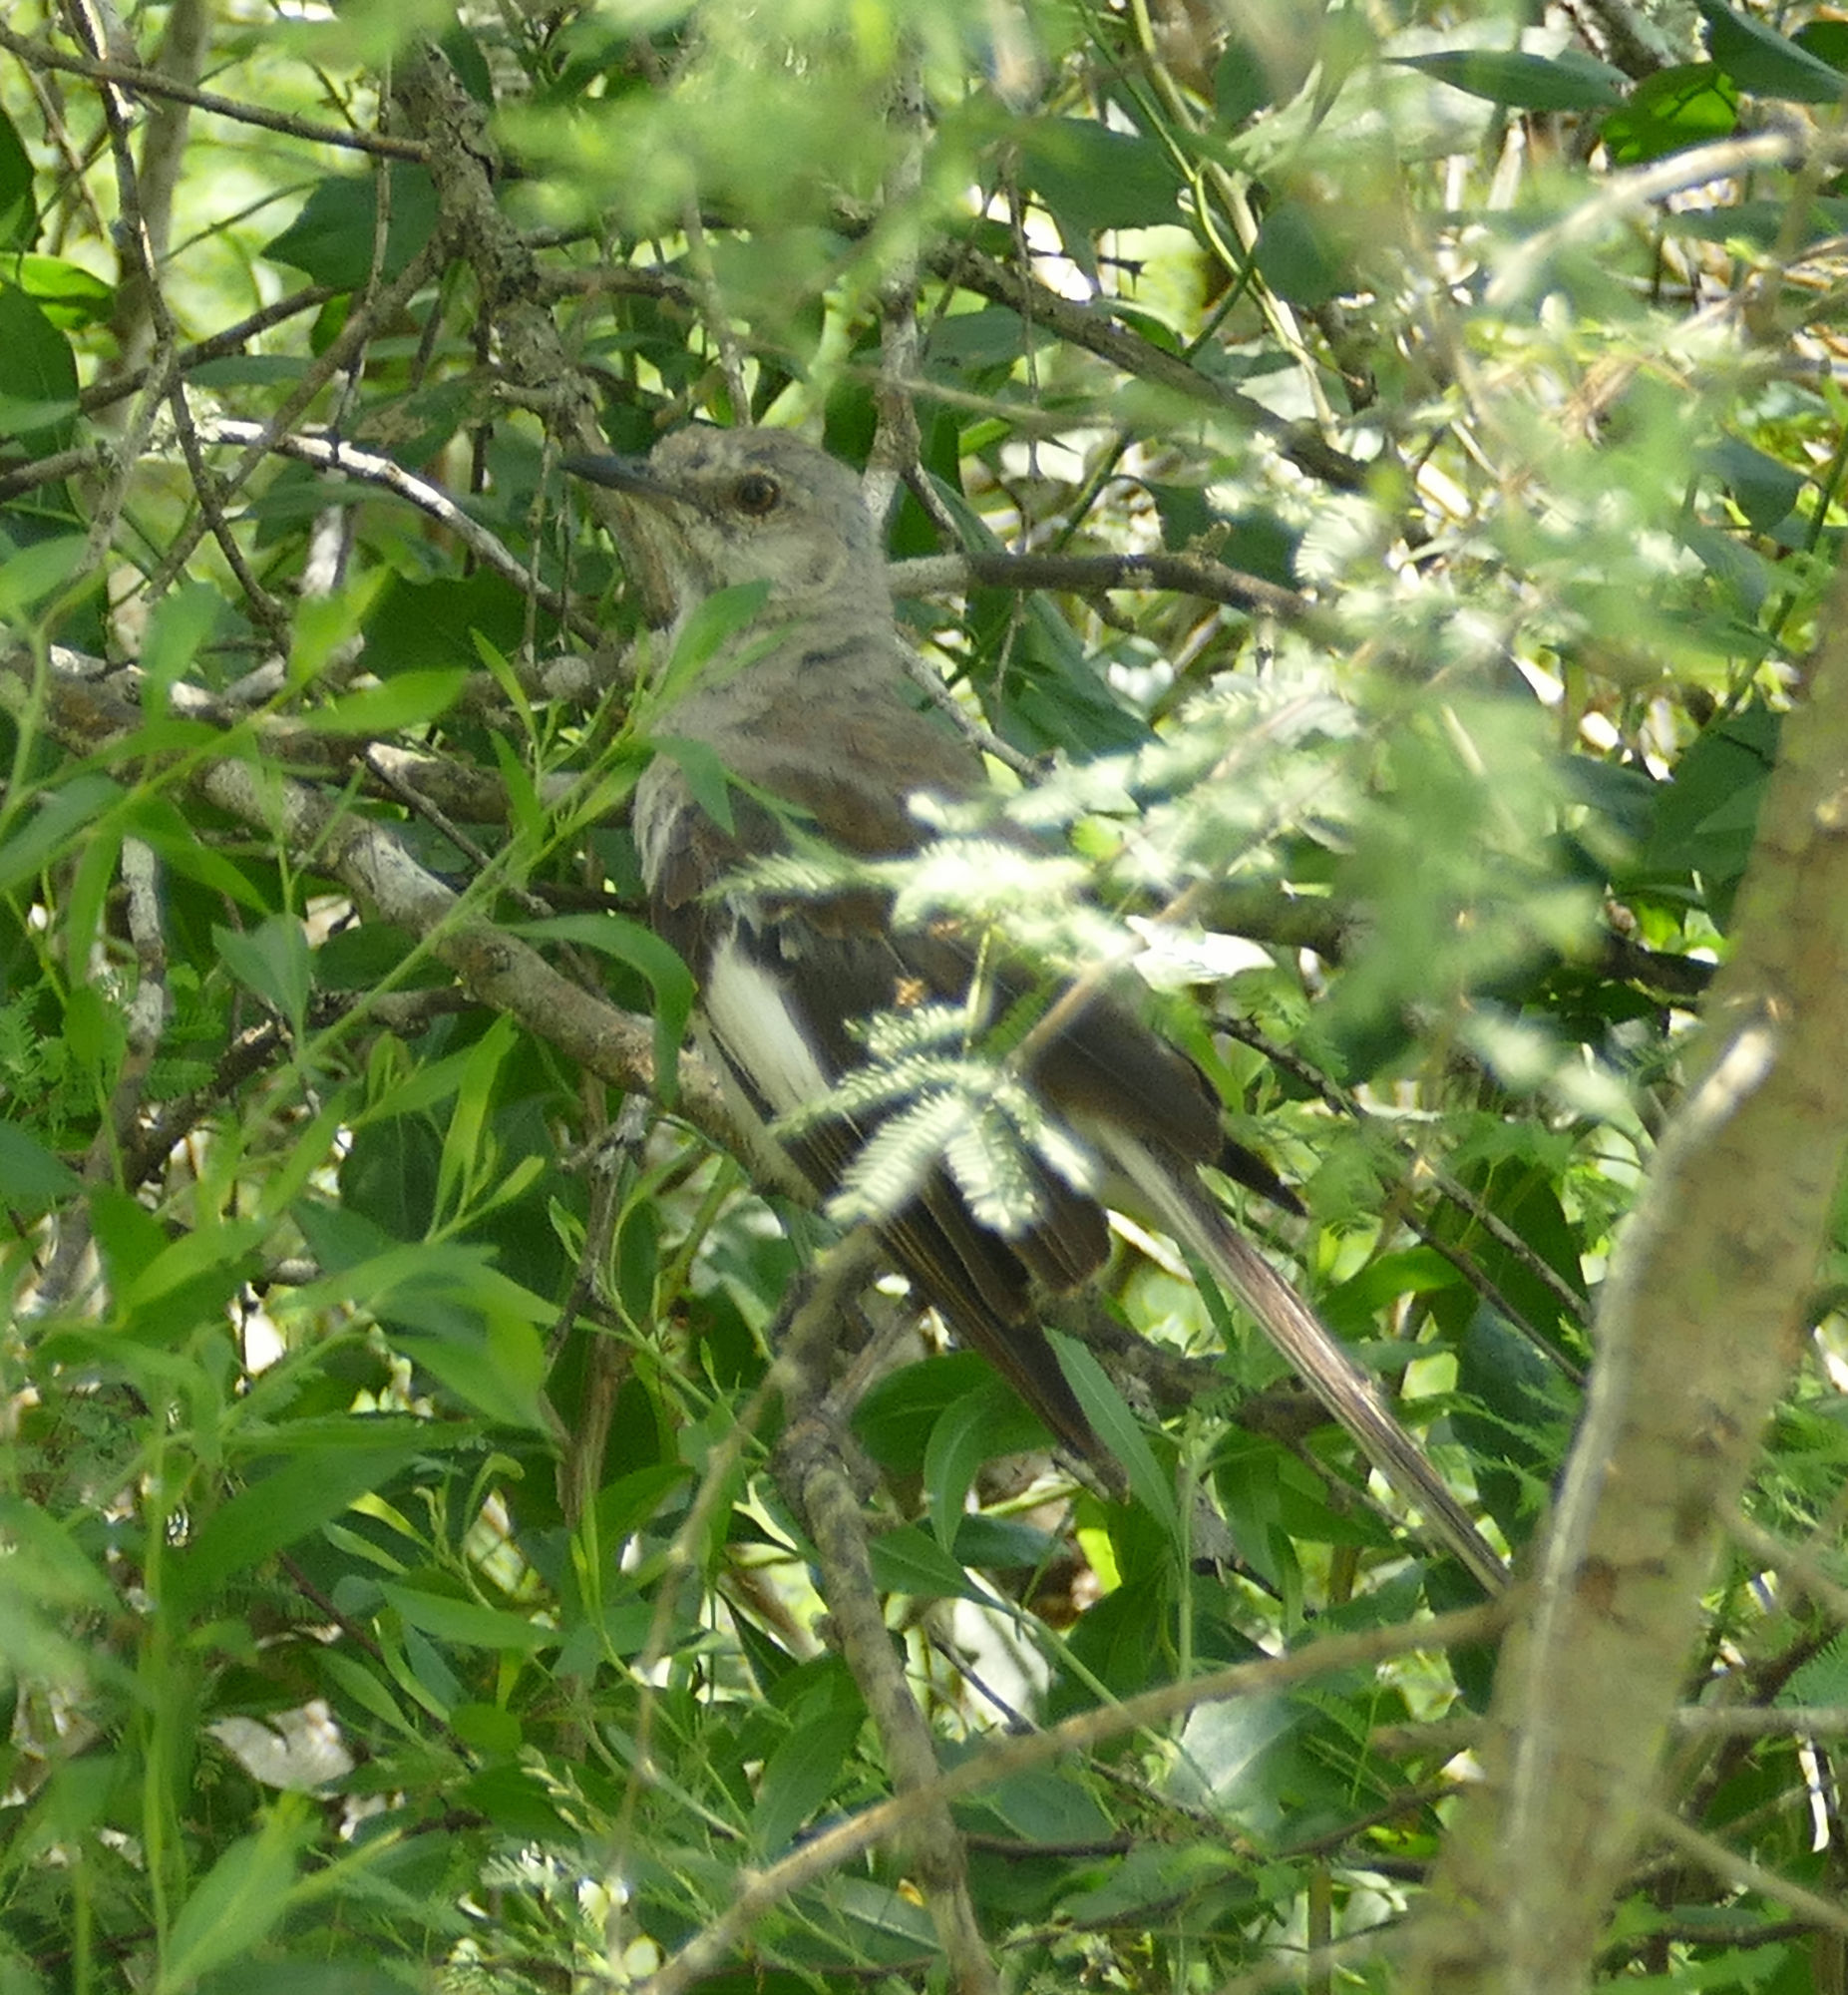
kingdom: Animalia
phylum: Chordata
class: Aves
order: Passeriformes
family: Mimidae
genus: Mimus
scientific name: Mimus polyglottos
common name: Northern mockingbird
